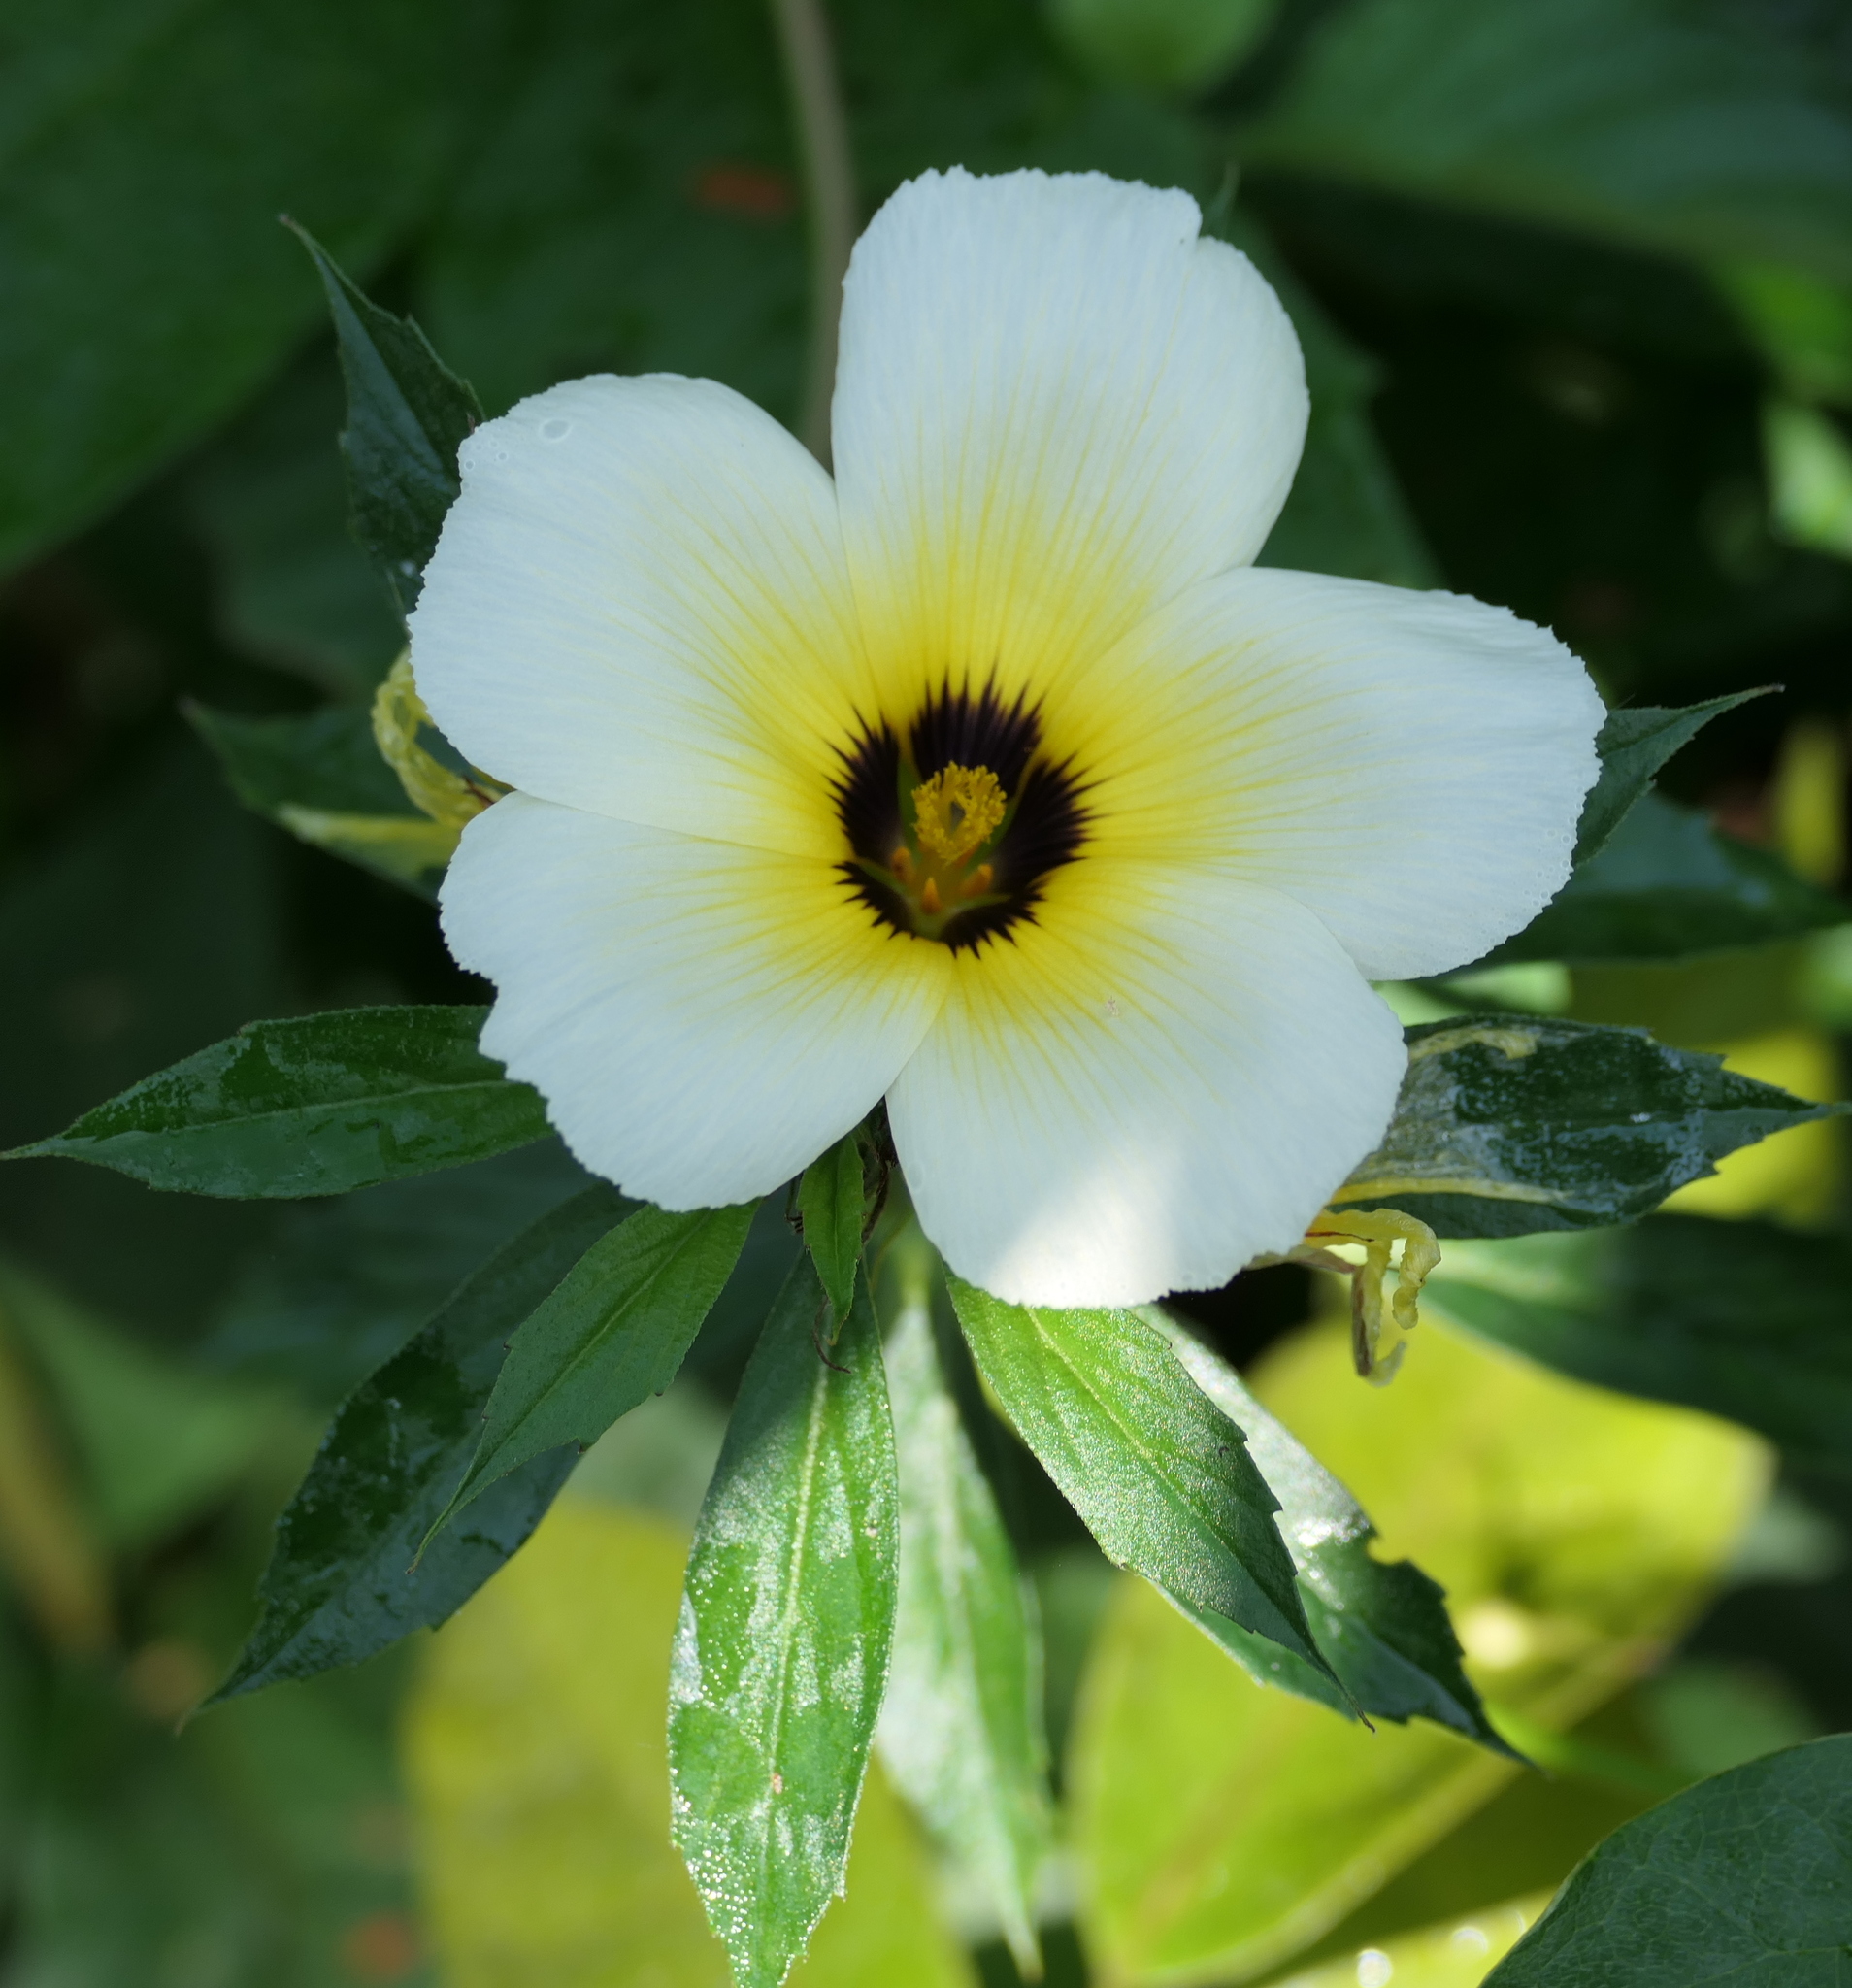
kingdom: Plantae
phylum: Tracheophyta
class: Magnoliopsida
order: Malpighiales
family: Turneraceae
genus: Turnera
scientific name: Turnera subulata
